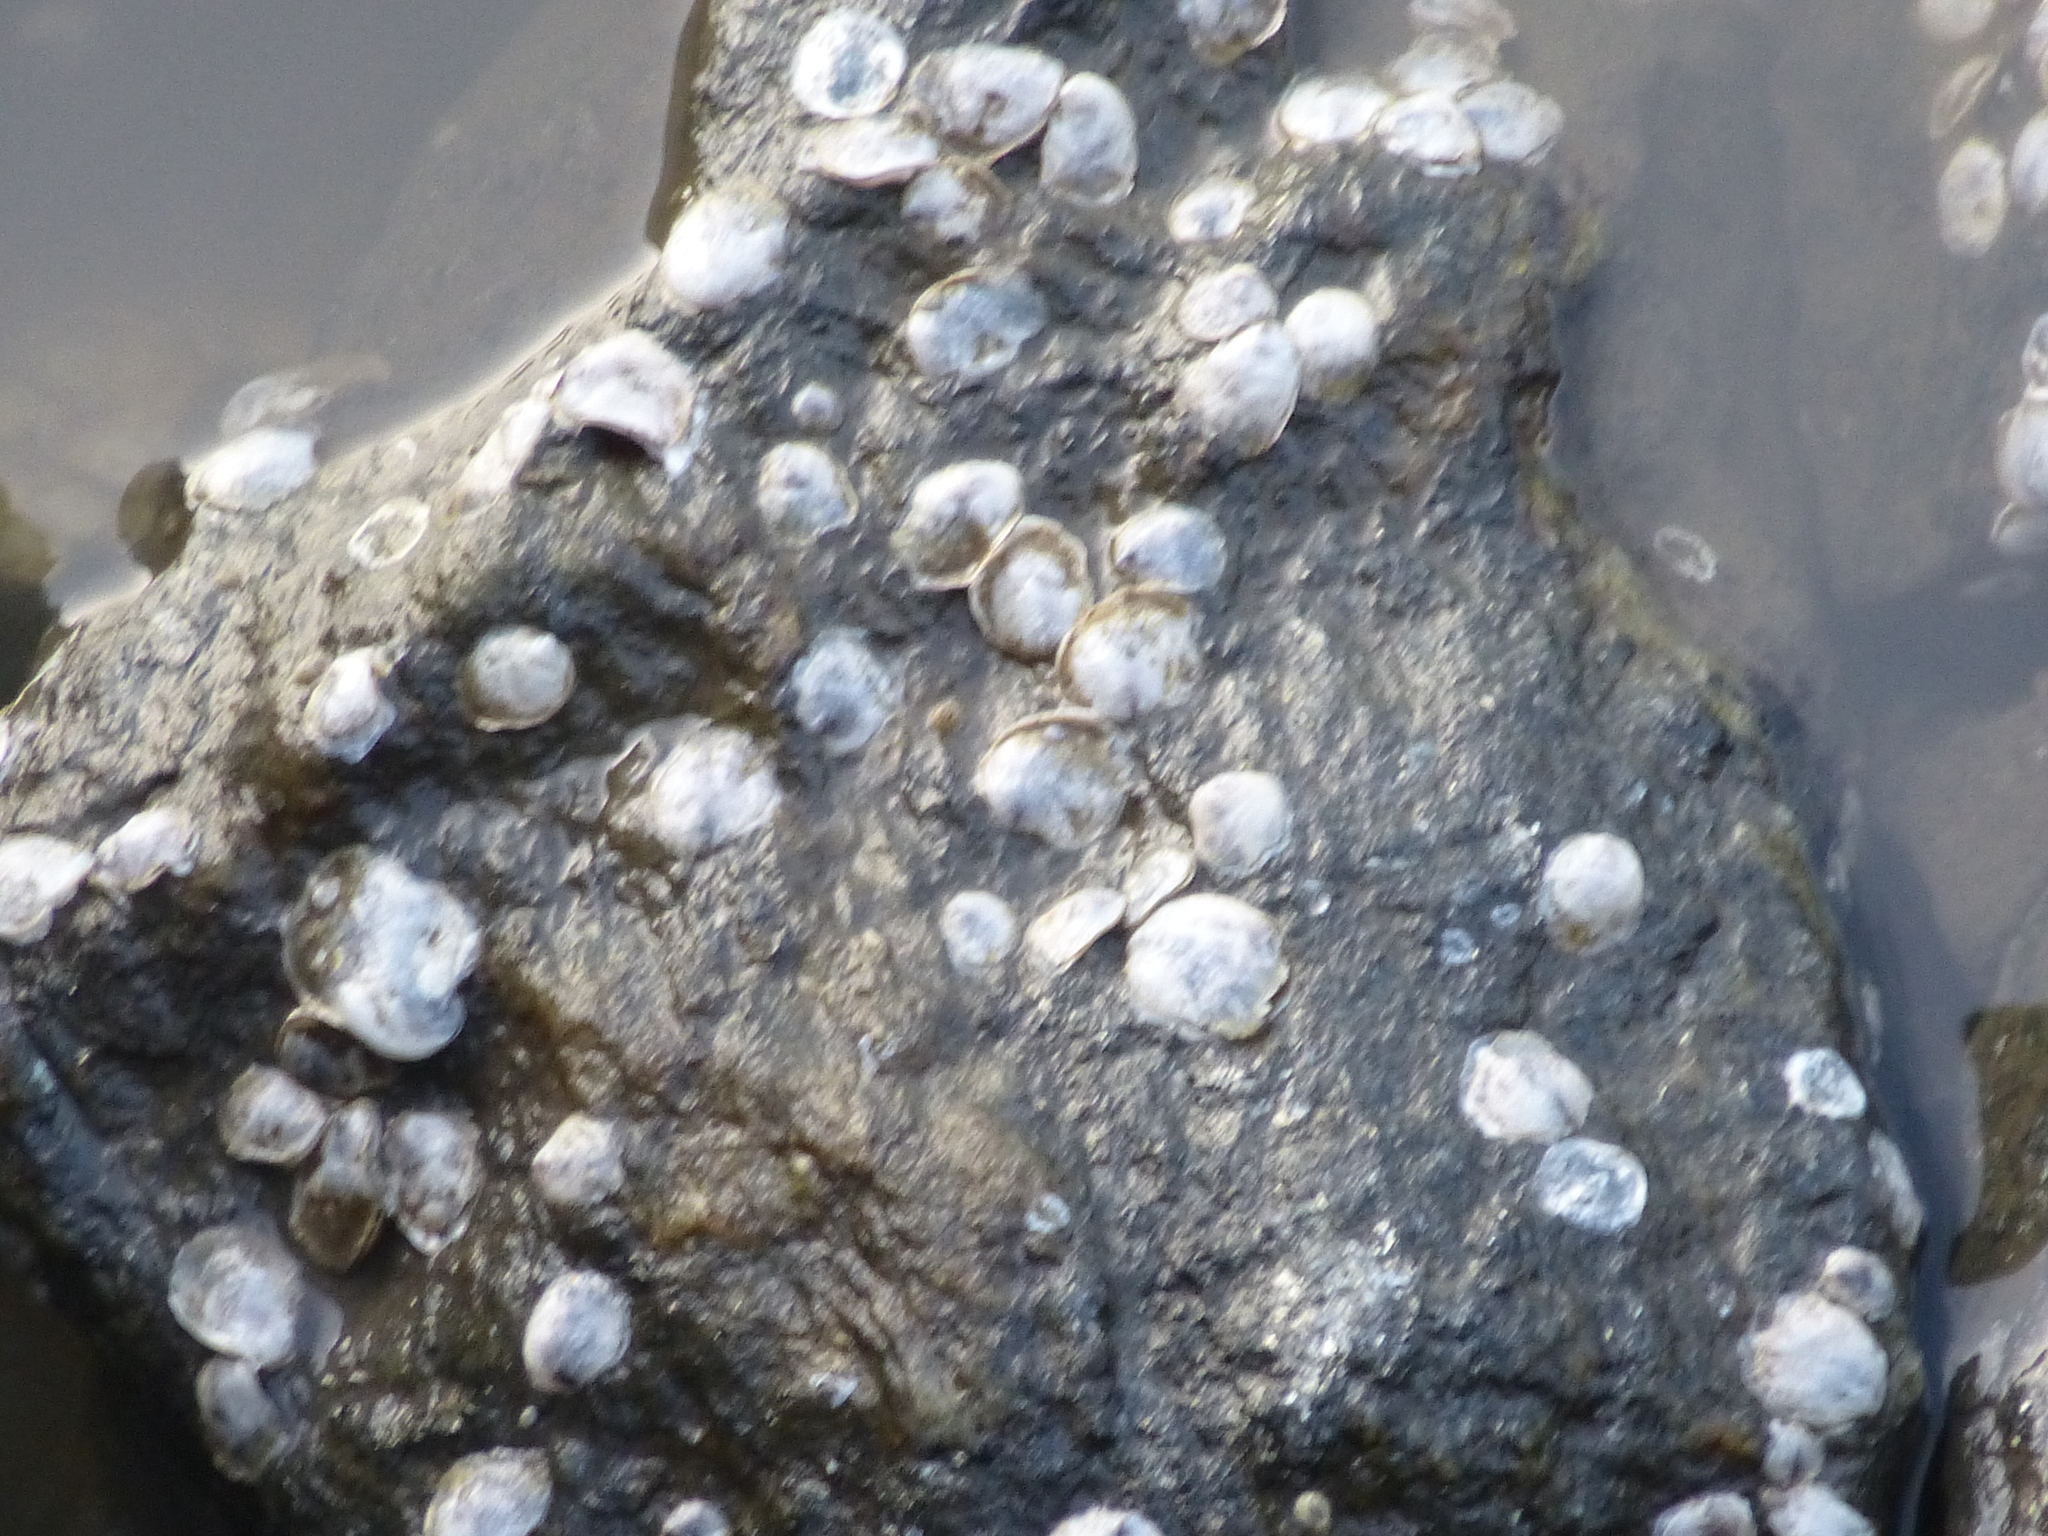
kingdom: Animalia
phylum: Mollusca
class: Bivalvia
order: Ostreida
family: Ostreidae
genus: Crassostrea
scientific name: Crassostrea virginica
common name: American oyster
